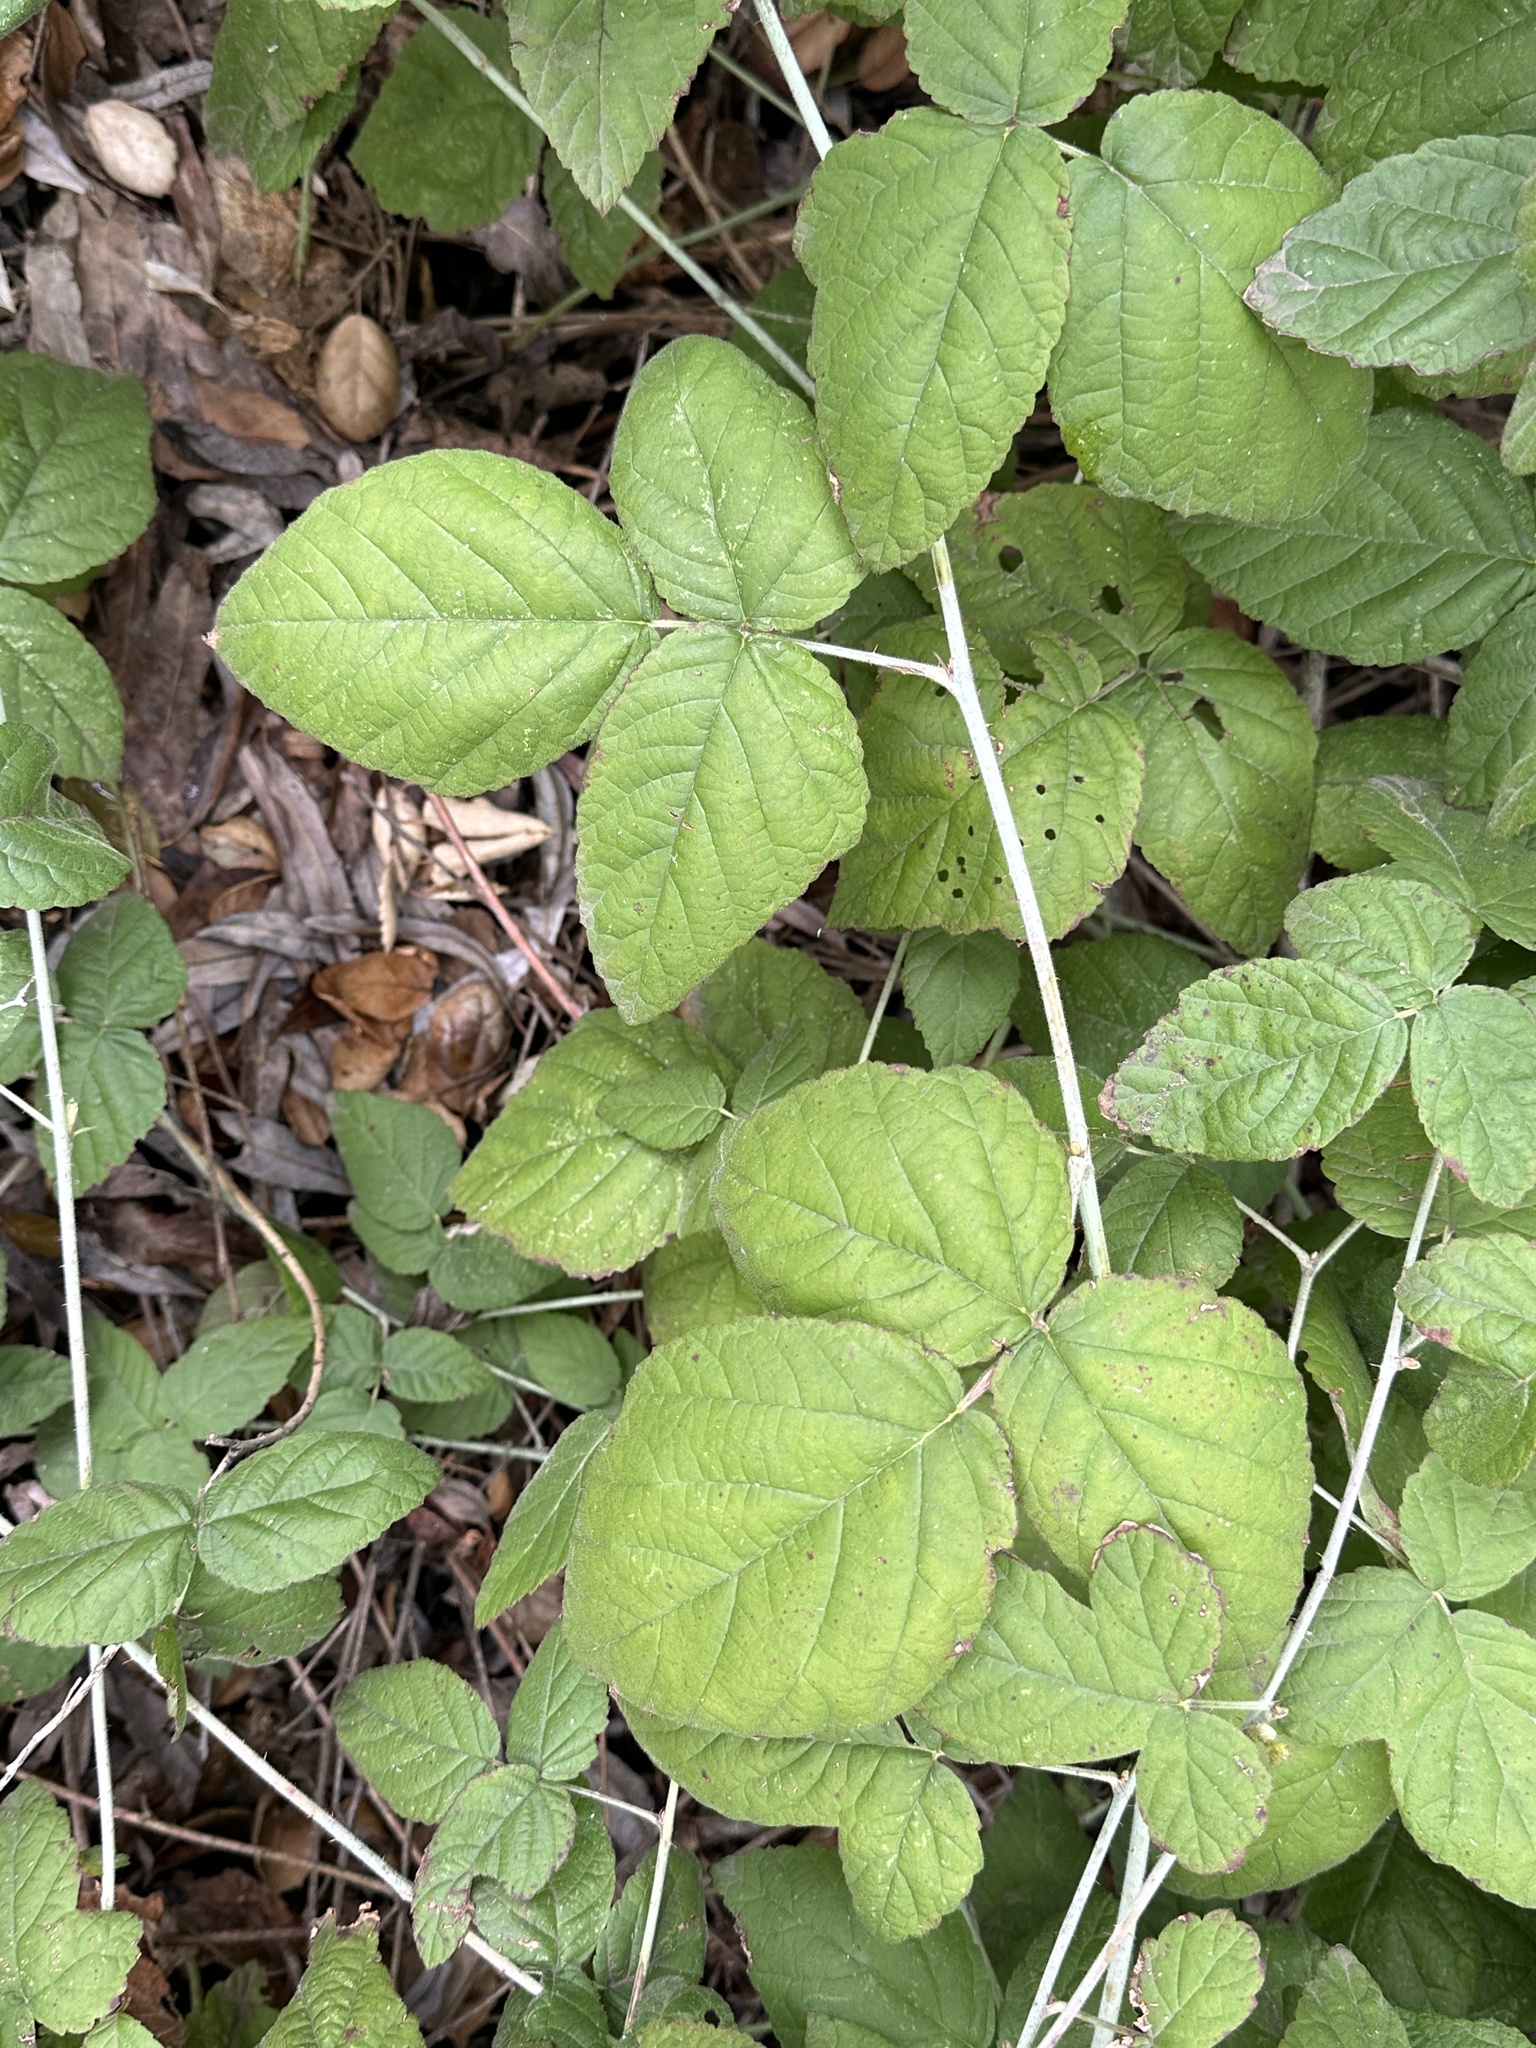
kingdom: Plantae
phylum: Tracheophyta
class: Magnoliopsida
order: Rosales
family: Rosaceae
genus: Rubus
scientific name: Rubus ursinus
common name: Pacific blackberry
